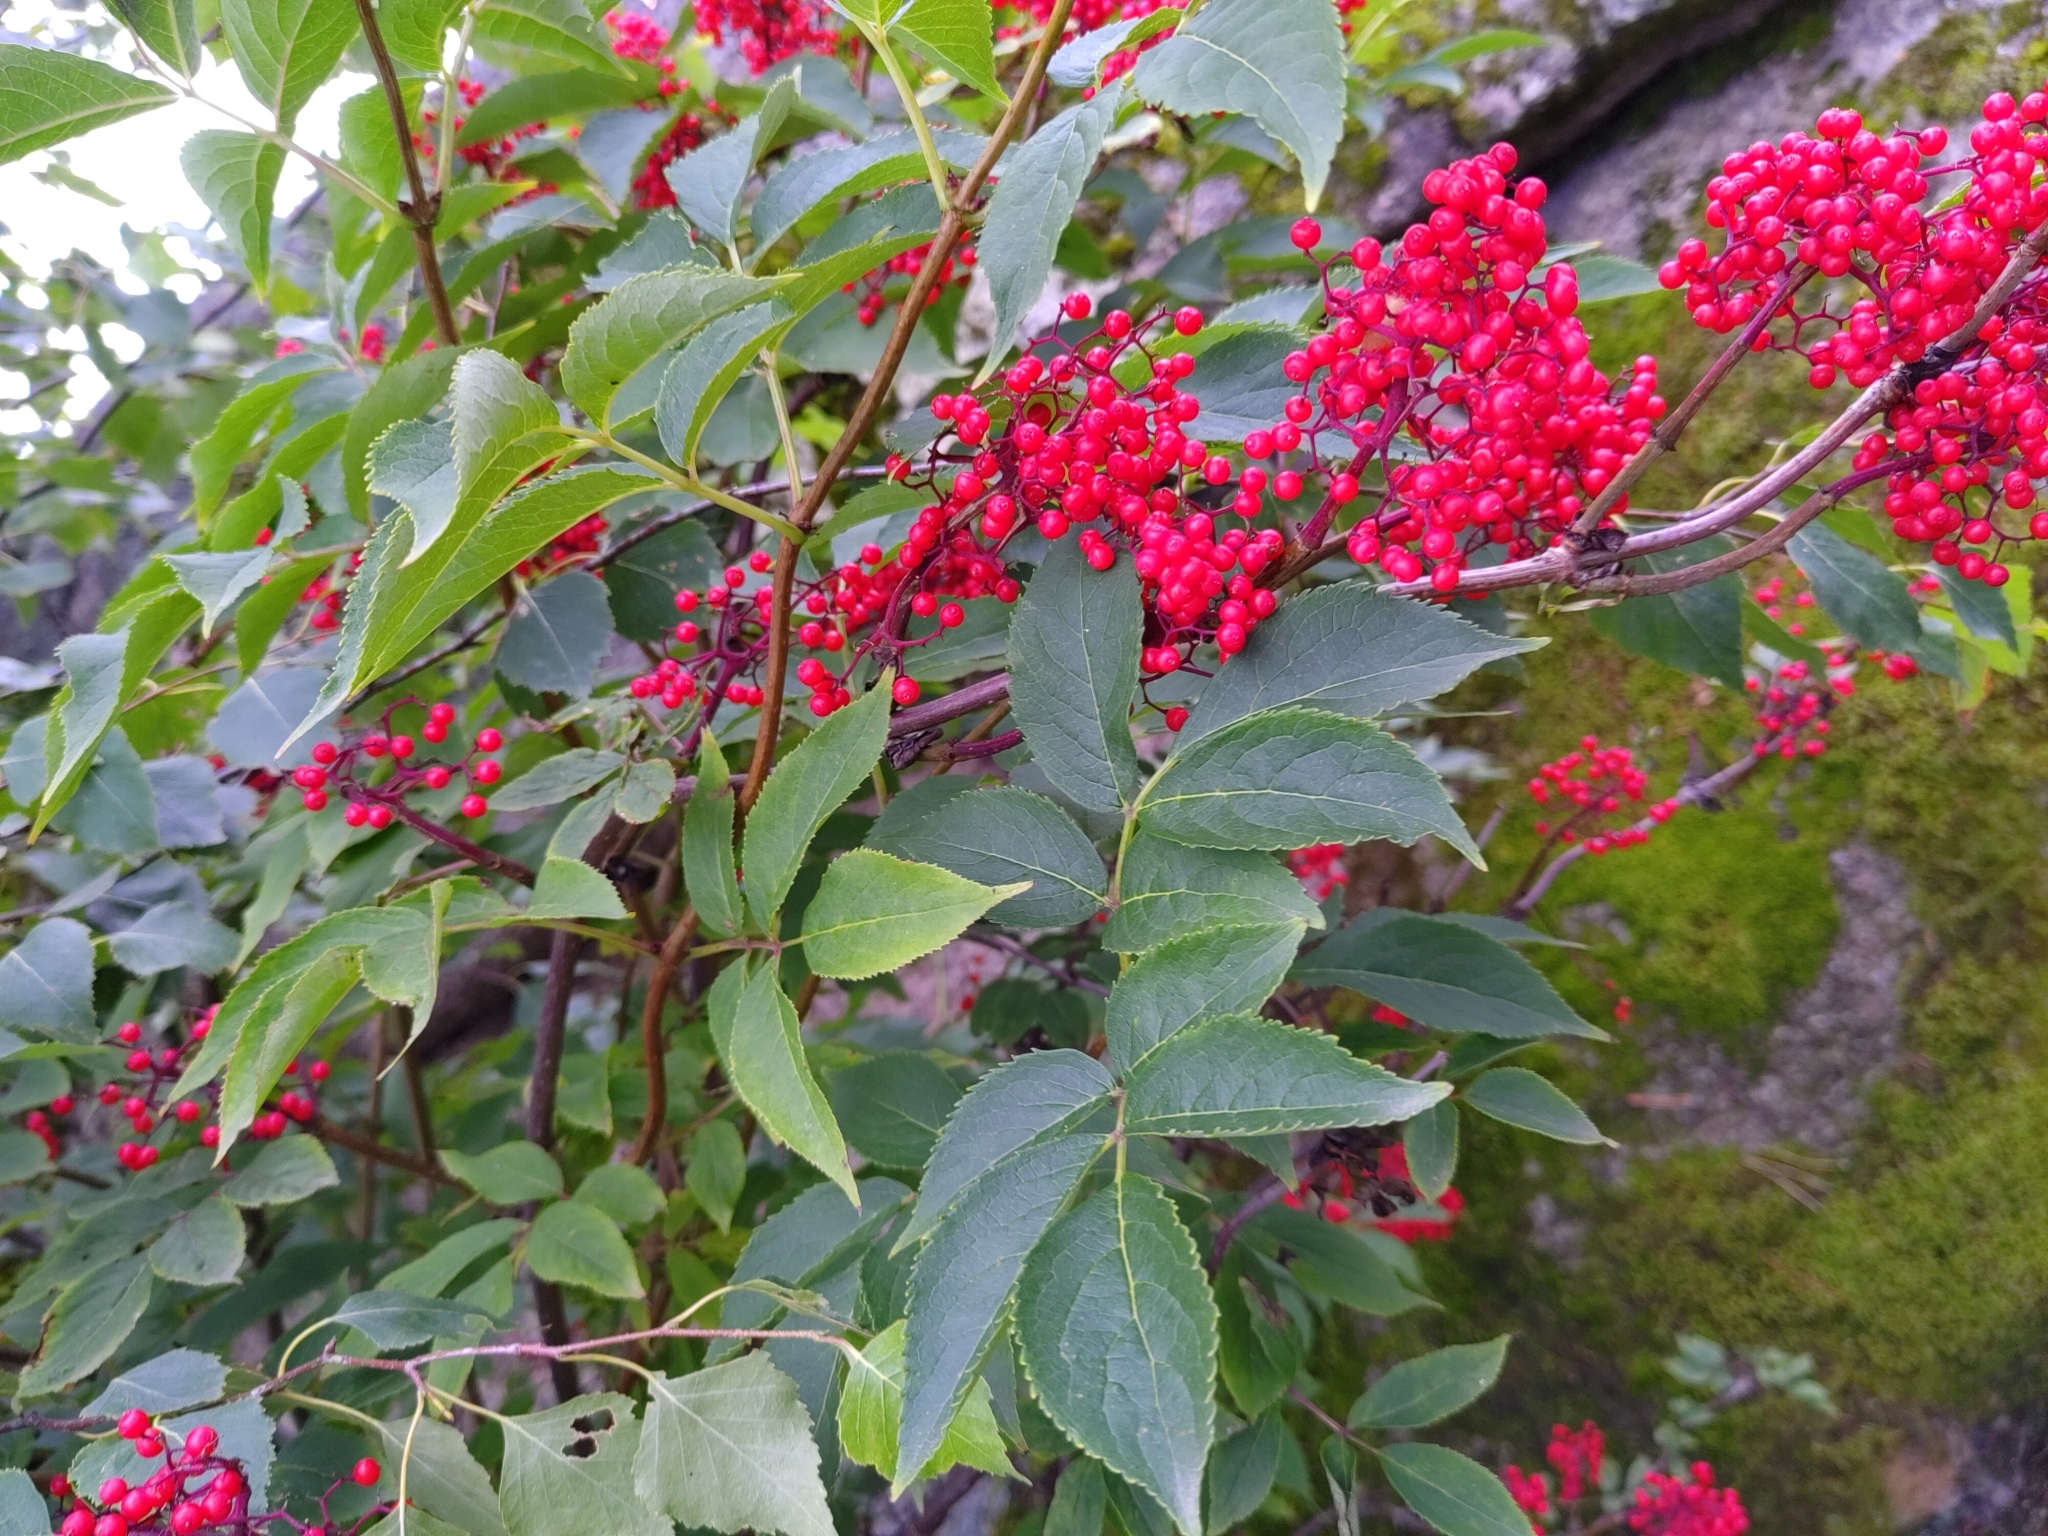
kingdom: Plantae
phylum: Tracheophyta
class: Magnoliopsida
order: Dipsacales
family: Viburnaceae
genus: Sambucus
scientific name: Sambucus racemosa
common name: Red-berried elder
